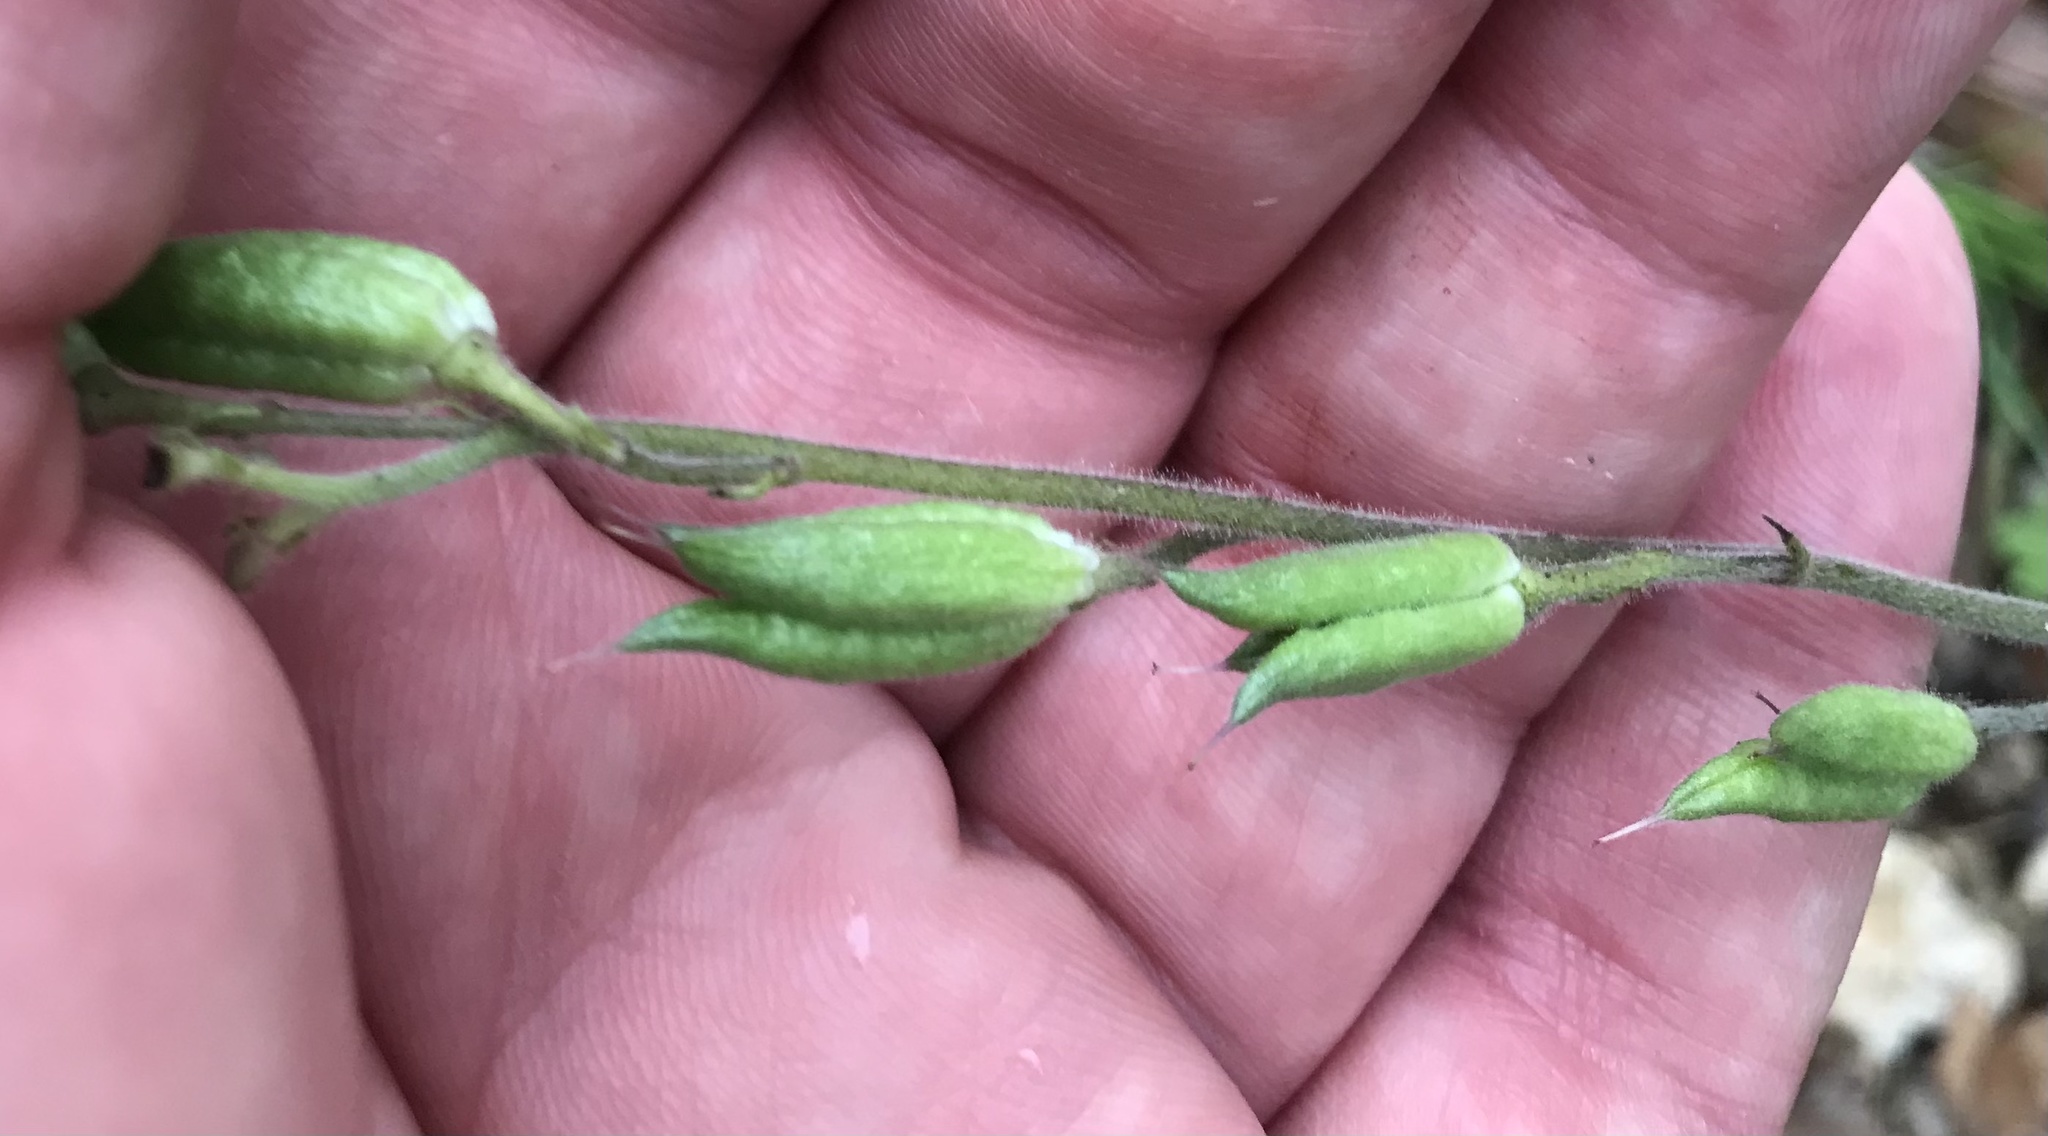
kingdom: Plantae
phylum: Tracheophyta
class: Magnoliopsida
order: Ranunculales
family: Ranunculaceae
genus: Delphinium
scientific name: Delphinium carolinianum
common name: Carolina larkspur
